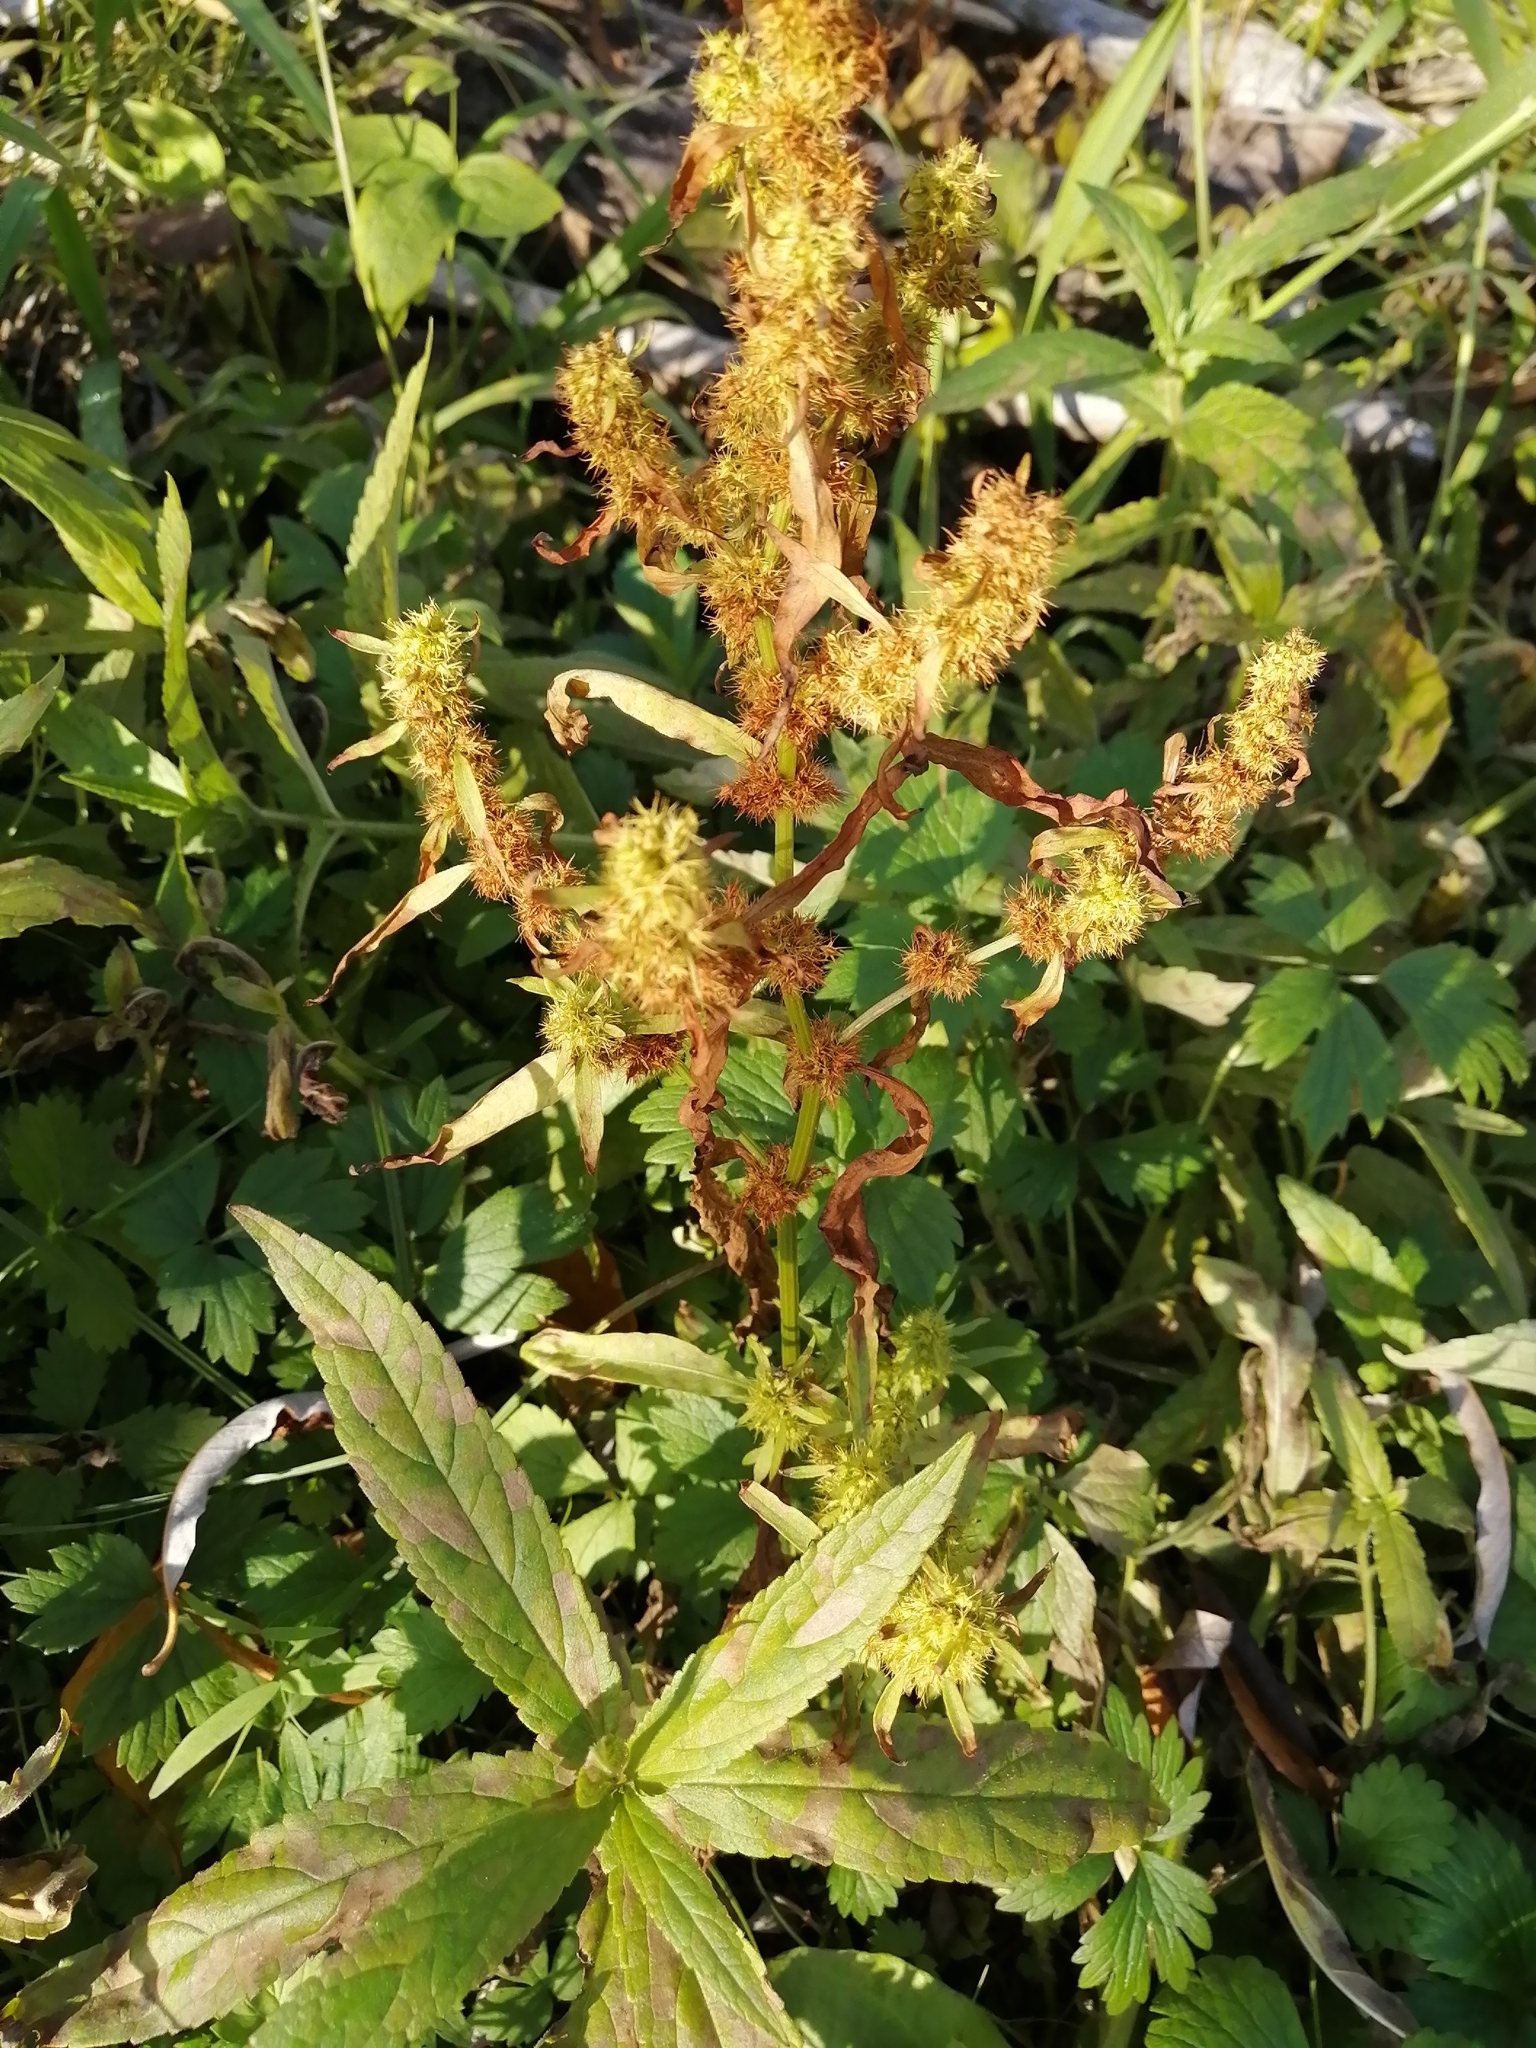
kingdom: Plantae
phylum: Tracheophyta
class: Magnoliopsida
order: Caryophyllales
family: Polygonaceae
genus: Rumex
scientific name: Rumex maritimus
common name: Golden dock
